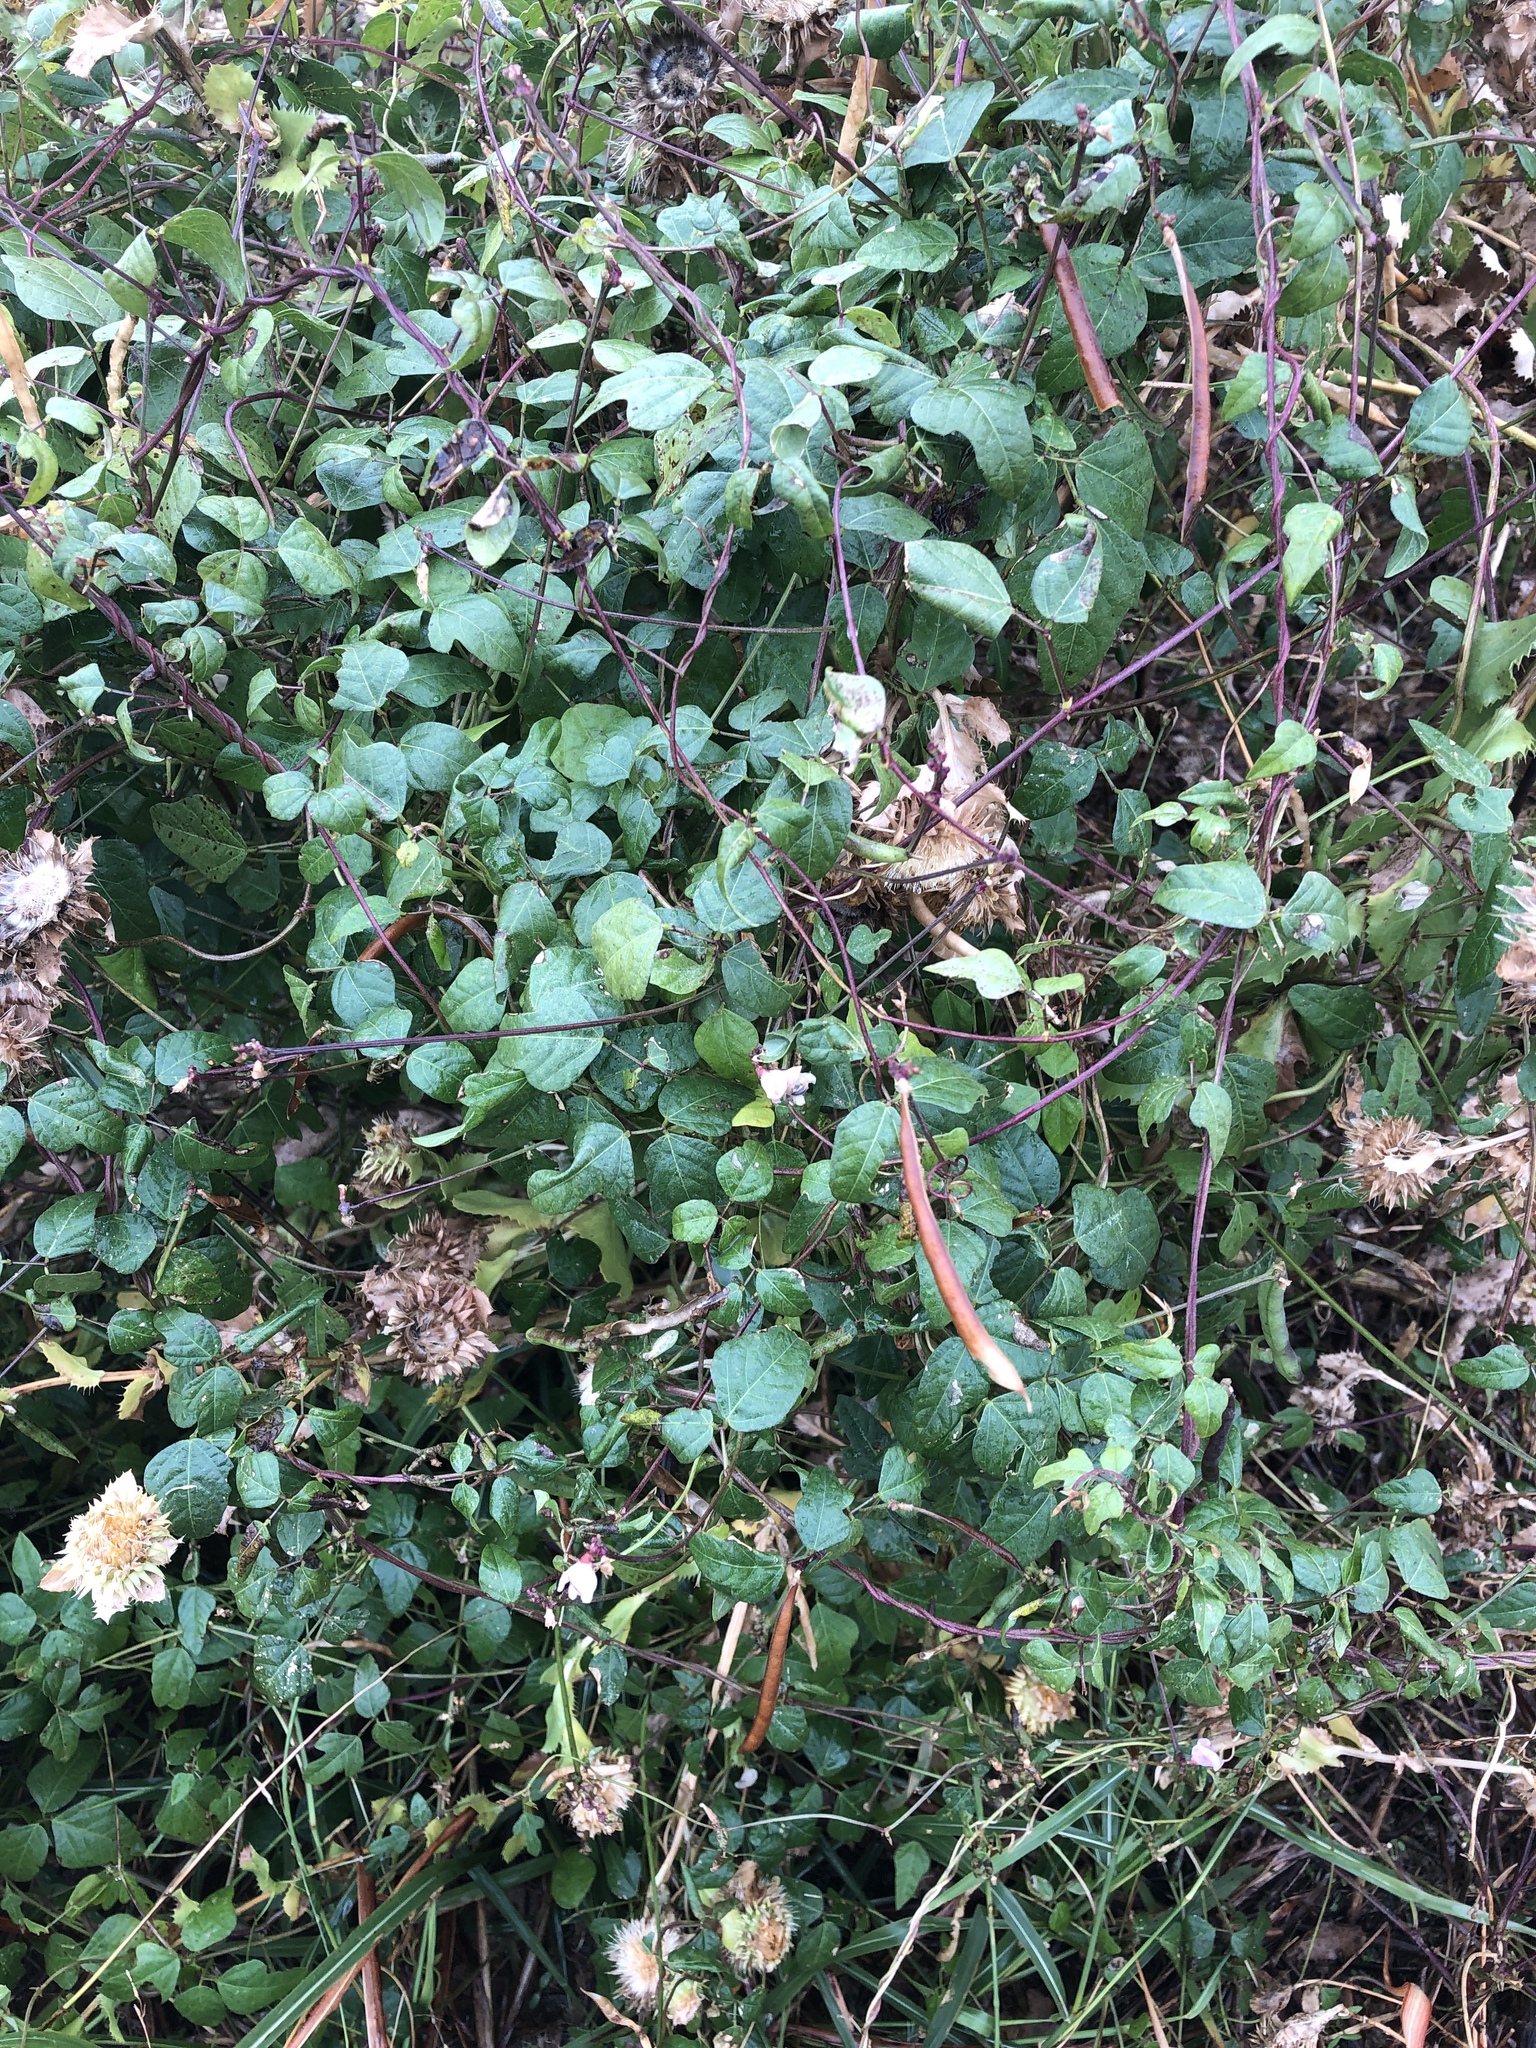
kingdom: Plantae
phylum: Tracheophyta
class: Magnoliopsida
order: Fabales
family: Fabaceae
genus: Strophostyles
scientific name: Strophostyles helvola
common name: Trailing wild bean
